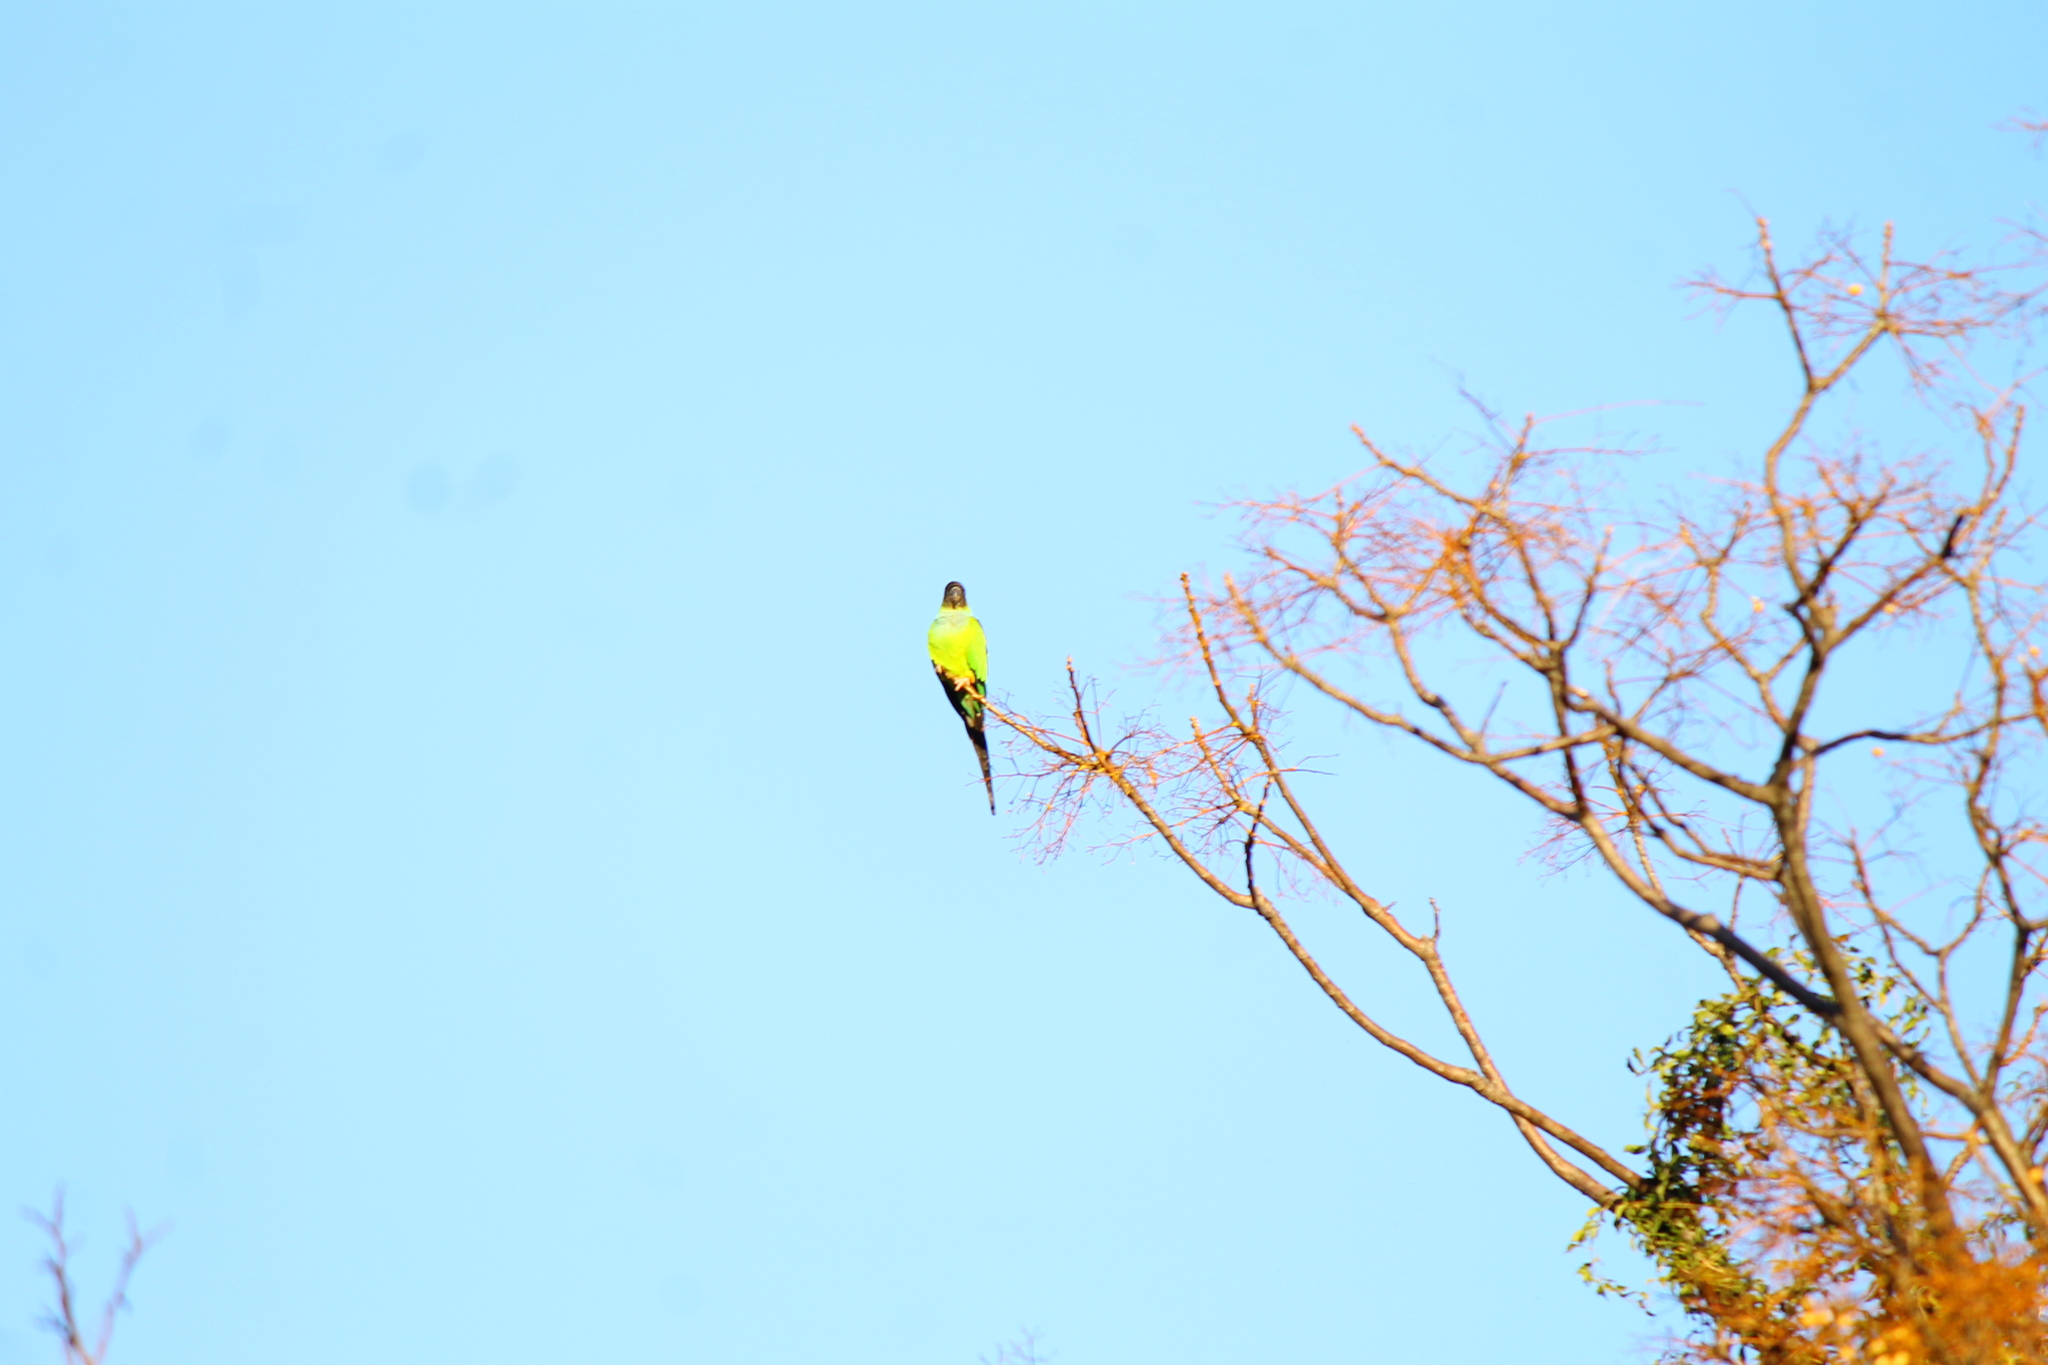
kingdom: Animalia
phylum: Chordata
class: Aves
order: Psittaciformes
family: Psittacidae
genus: Nandayus
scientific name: Nandayus nenday
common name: Nanday parakeet
